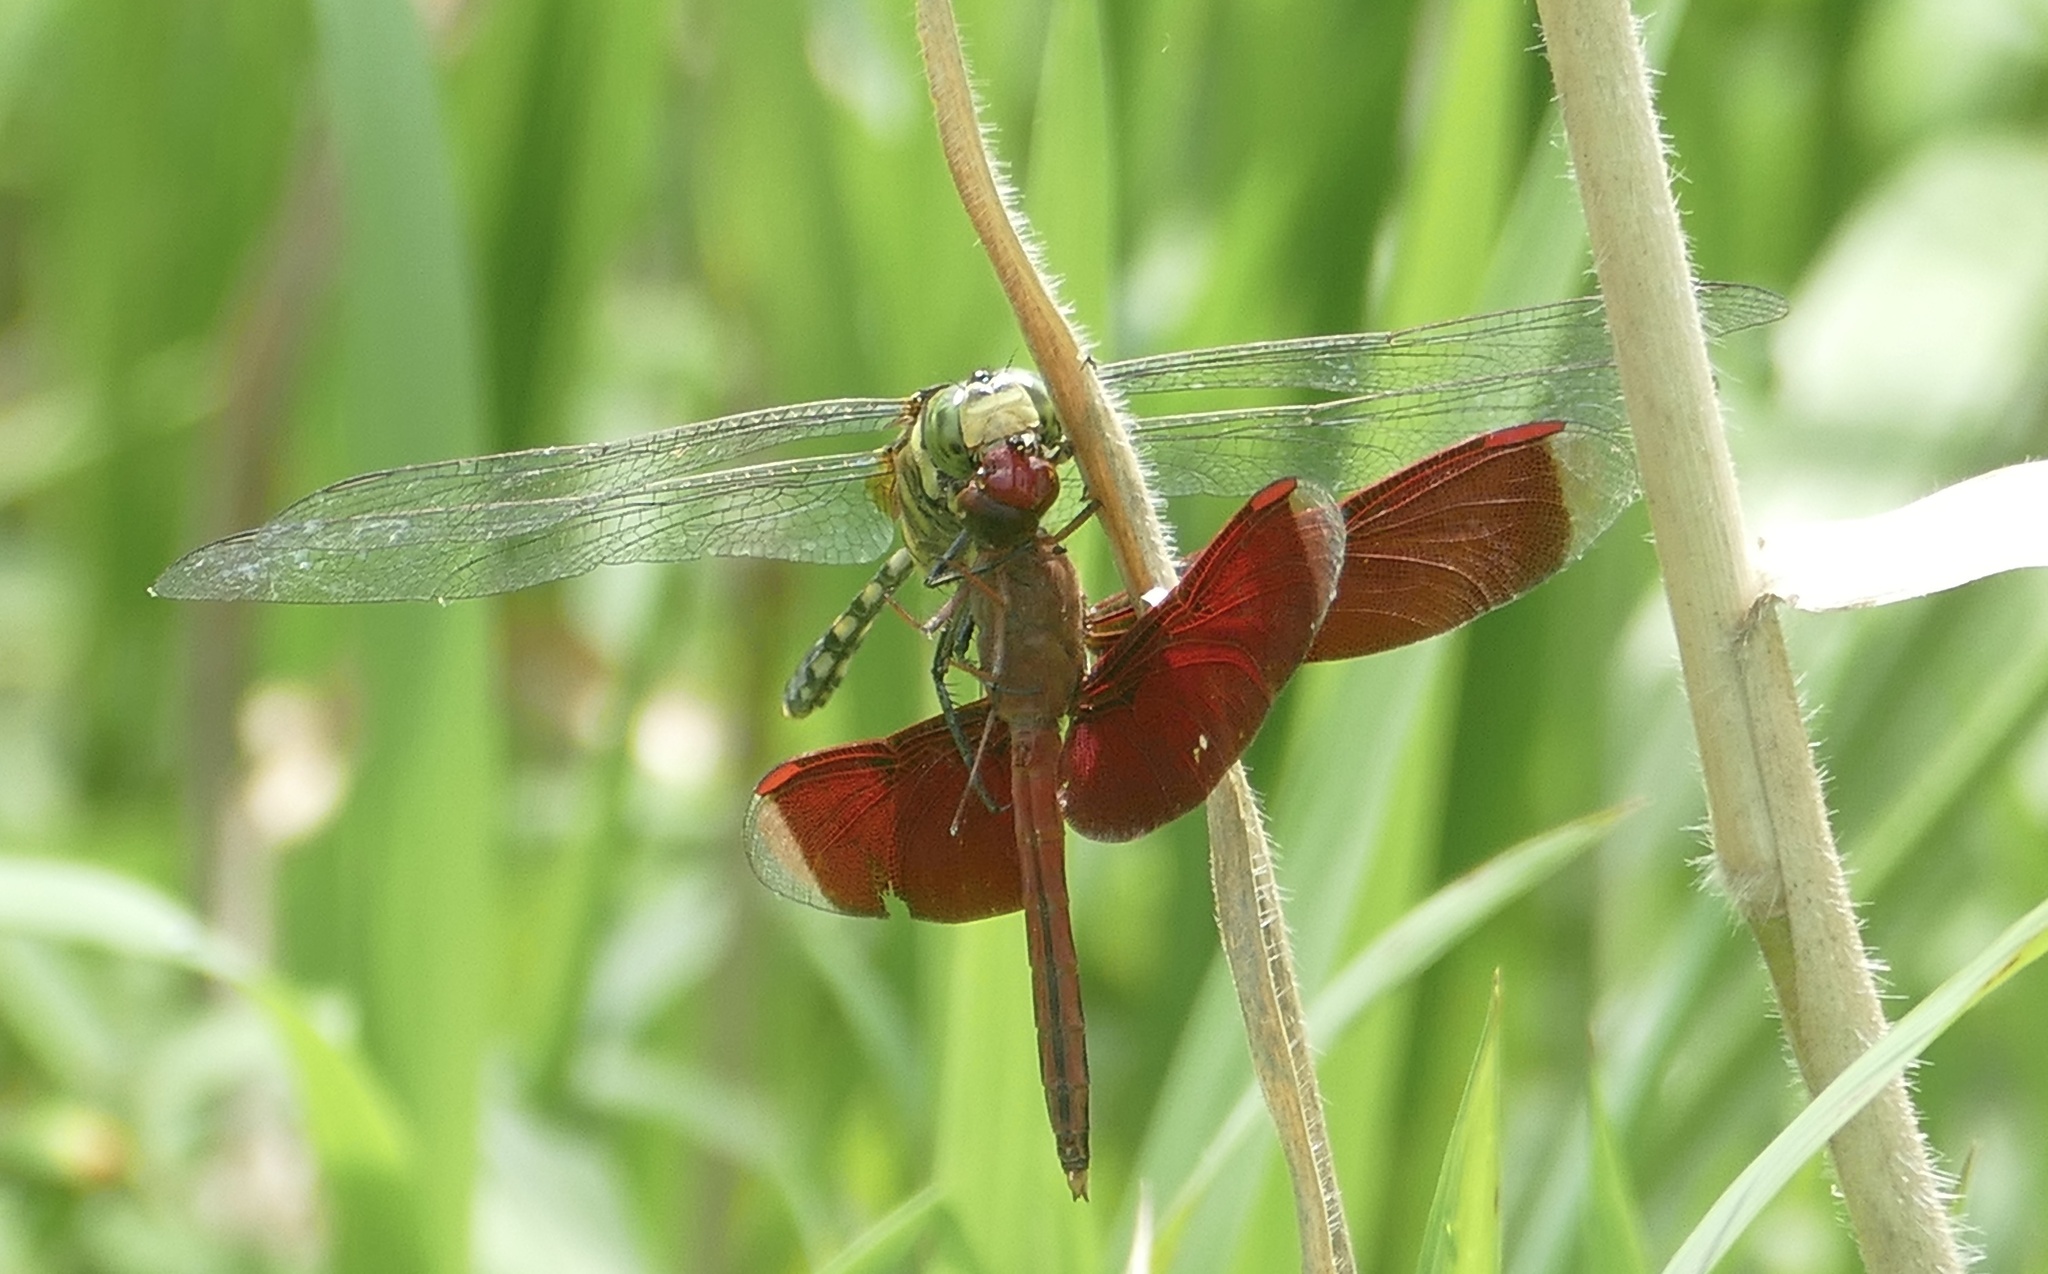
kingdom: Animalia
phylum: Arthropoda
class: Insecta
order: Odonata
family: Libellulidae
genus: Orthetrum
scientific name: Orthetrum serapia
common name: Green skimmer
